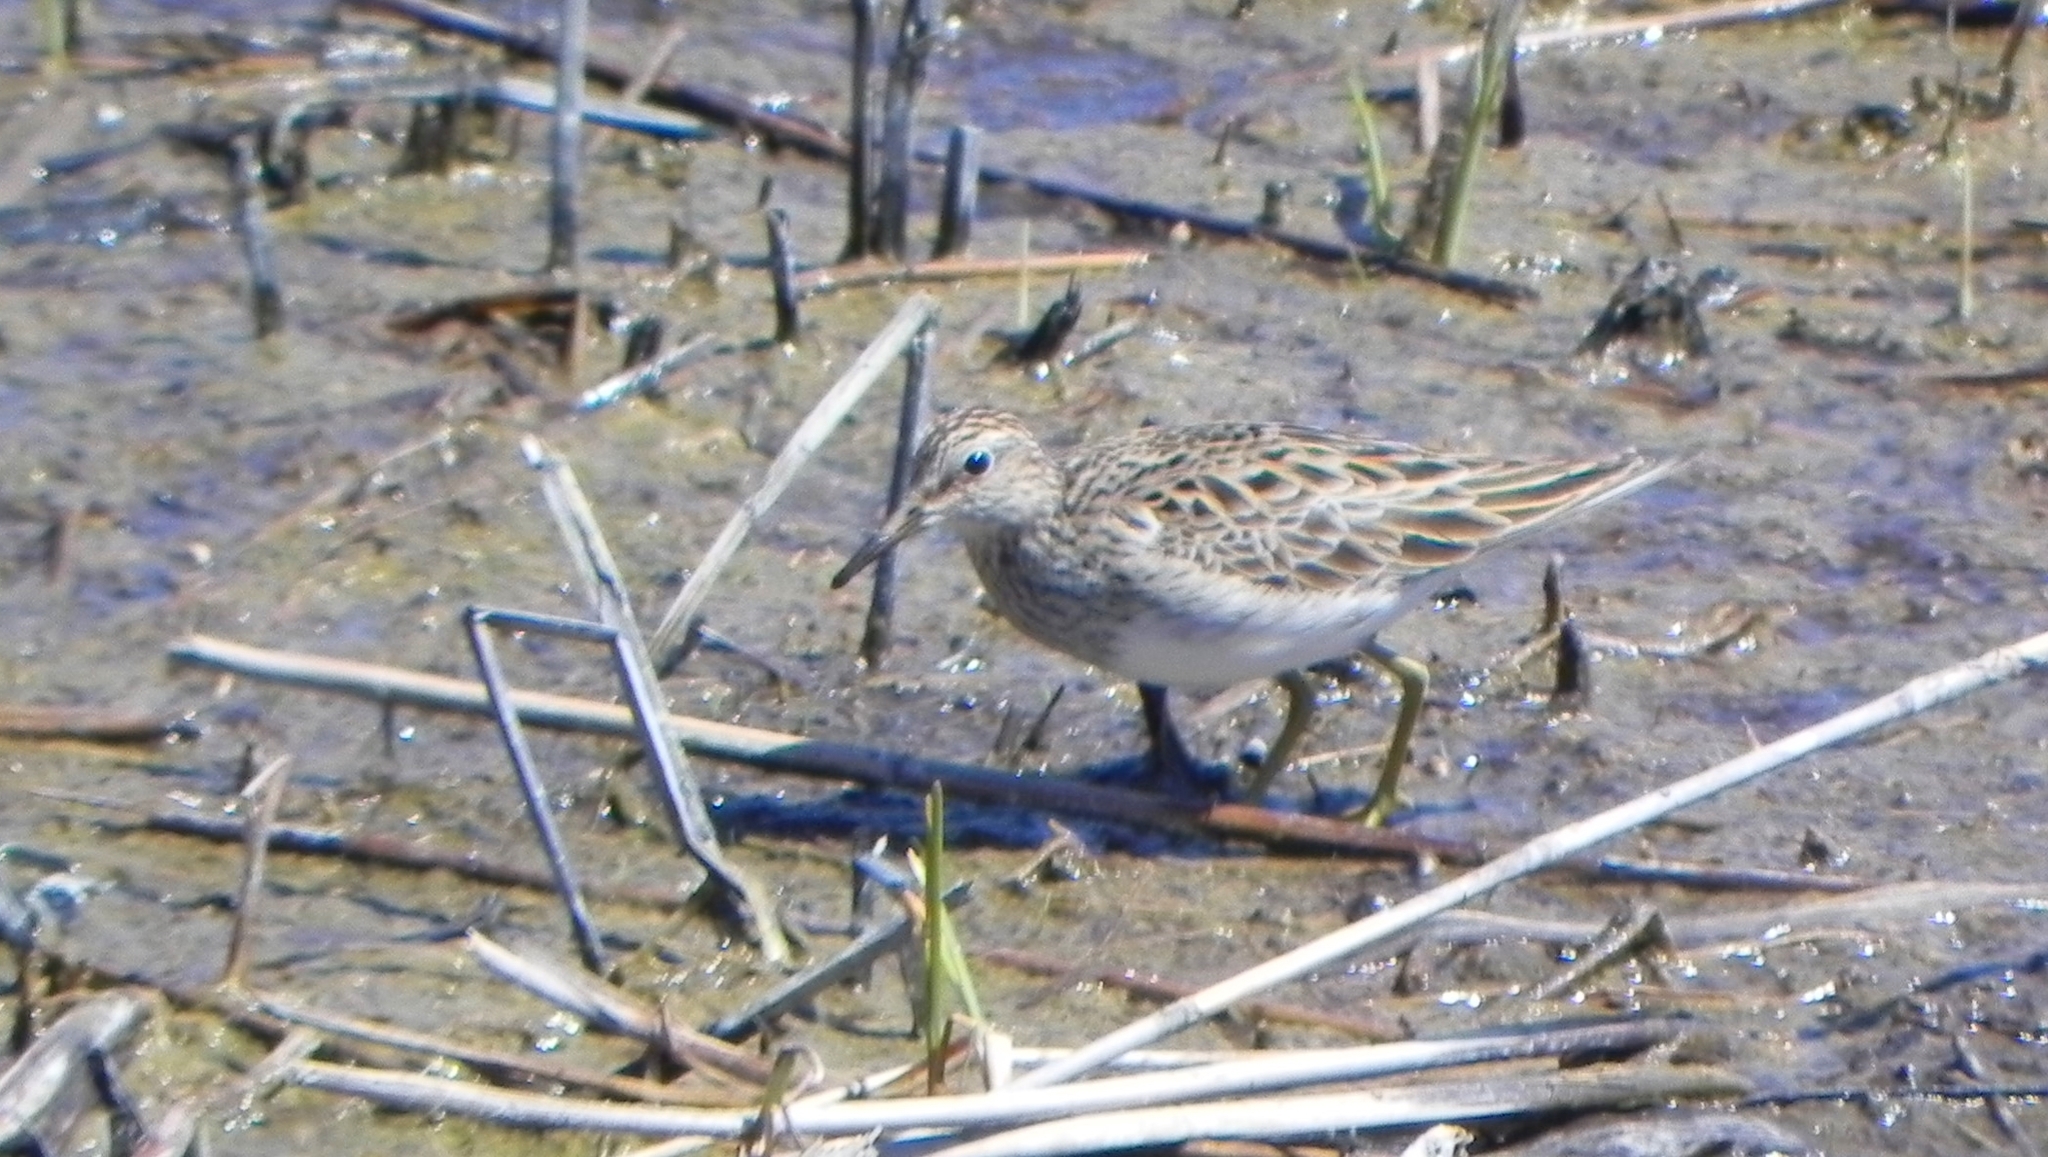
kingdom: Animalia
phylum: Chordata
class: Aves
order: Charadriiformes
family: Scolopacidae
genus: Calidris
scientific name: Calidris minutilla
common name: Least sandpiper
